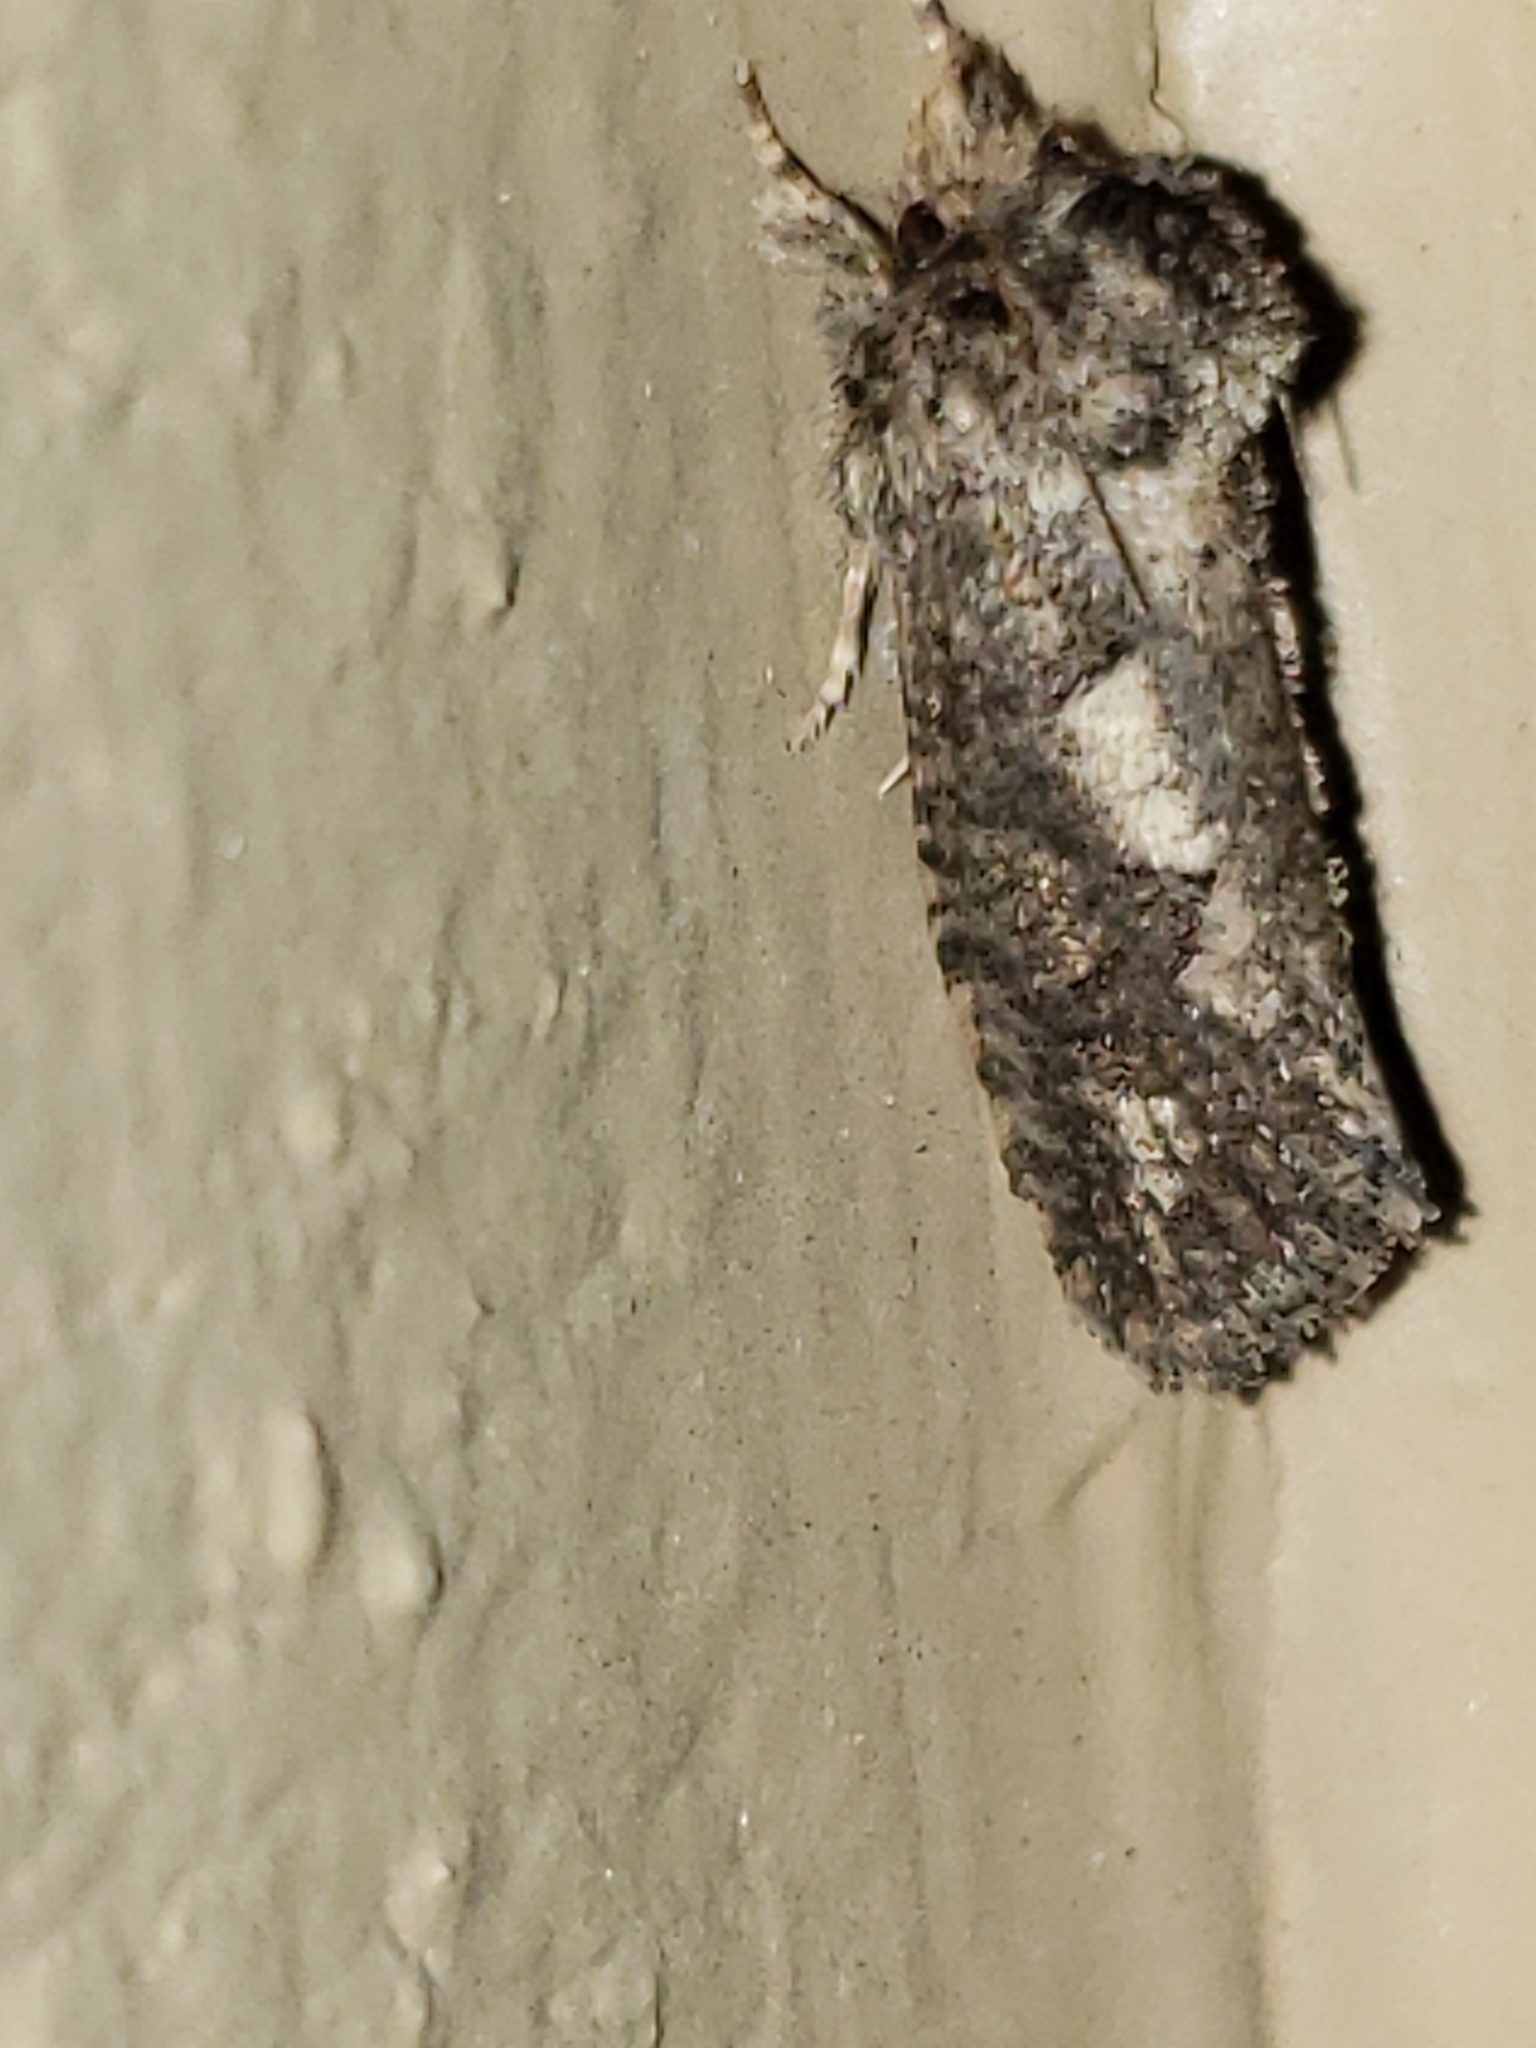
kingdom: Animalia
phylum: Arthropoda
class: Insecta
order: Lepidoptera
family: Tineidae
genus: Acrolophus
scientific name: Acrolophus arcanella
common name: Arcane grass tubeworm moth
